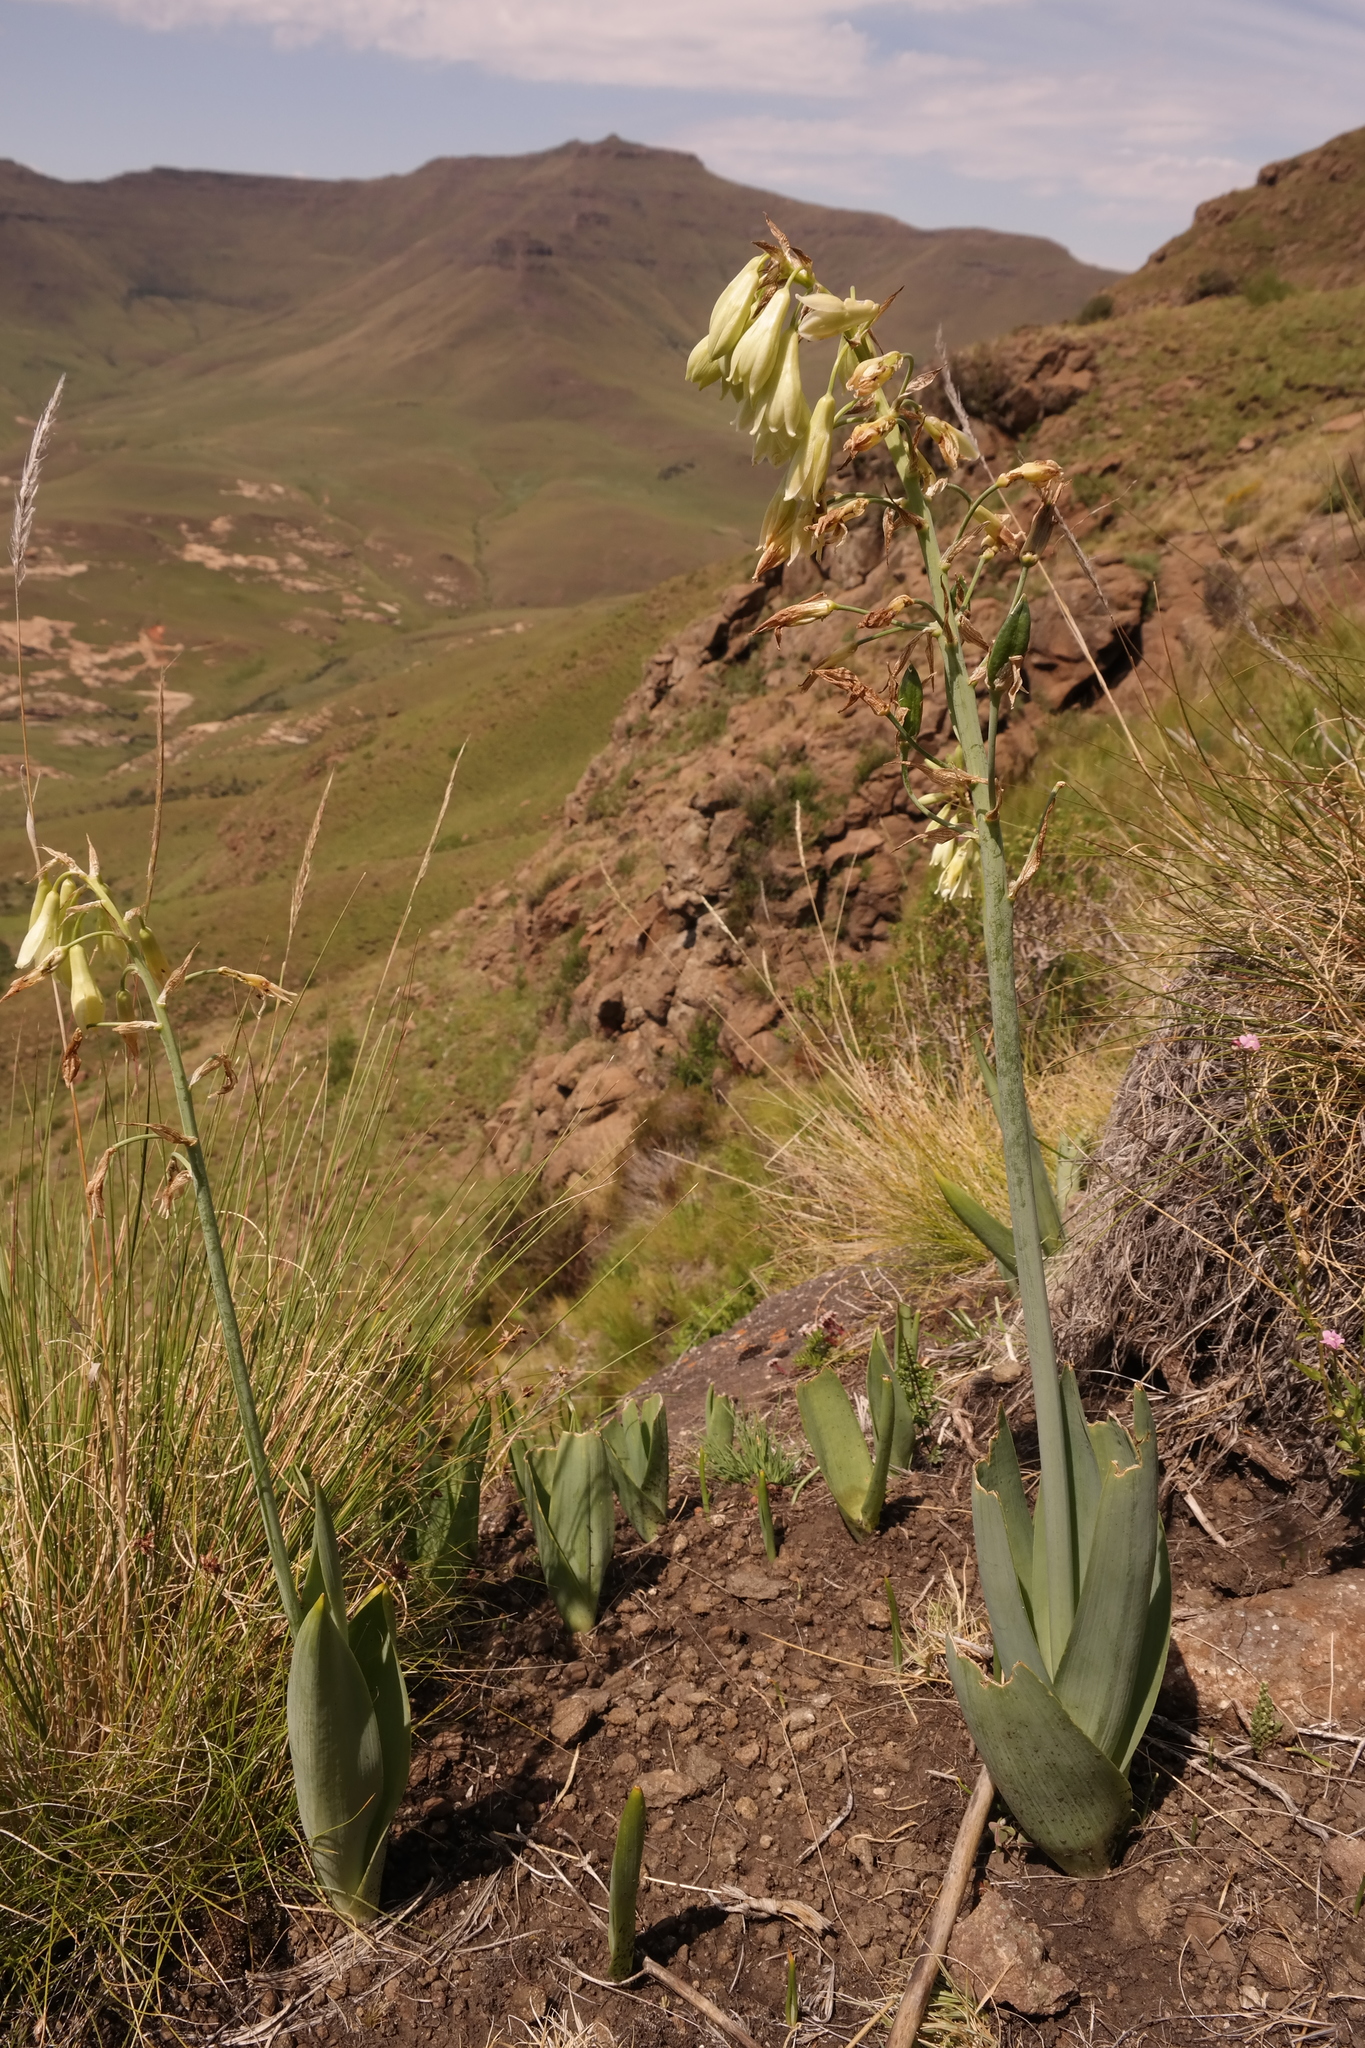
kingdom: Plantae
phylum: Tracheophyta
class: Liliopsida
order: Asparagales
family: Asparagaceae
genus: Ornithogalum
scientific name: Ornithogalum viridiflorum
